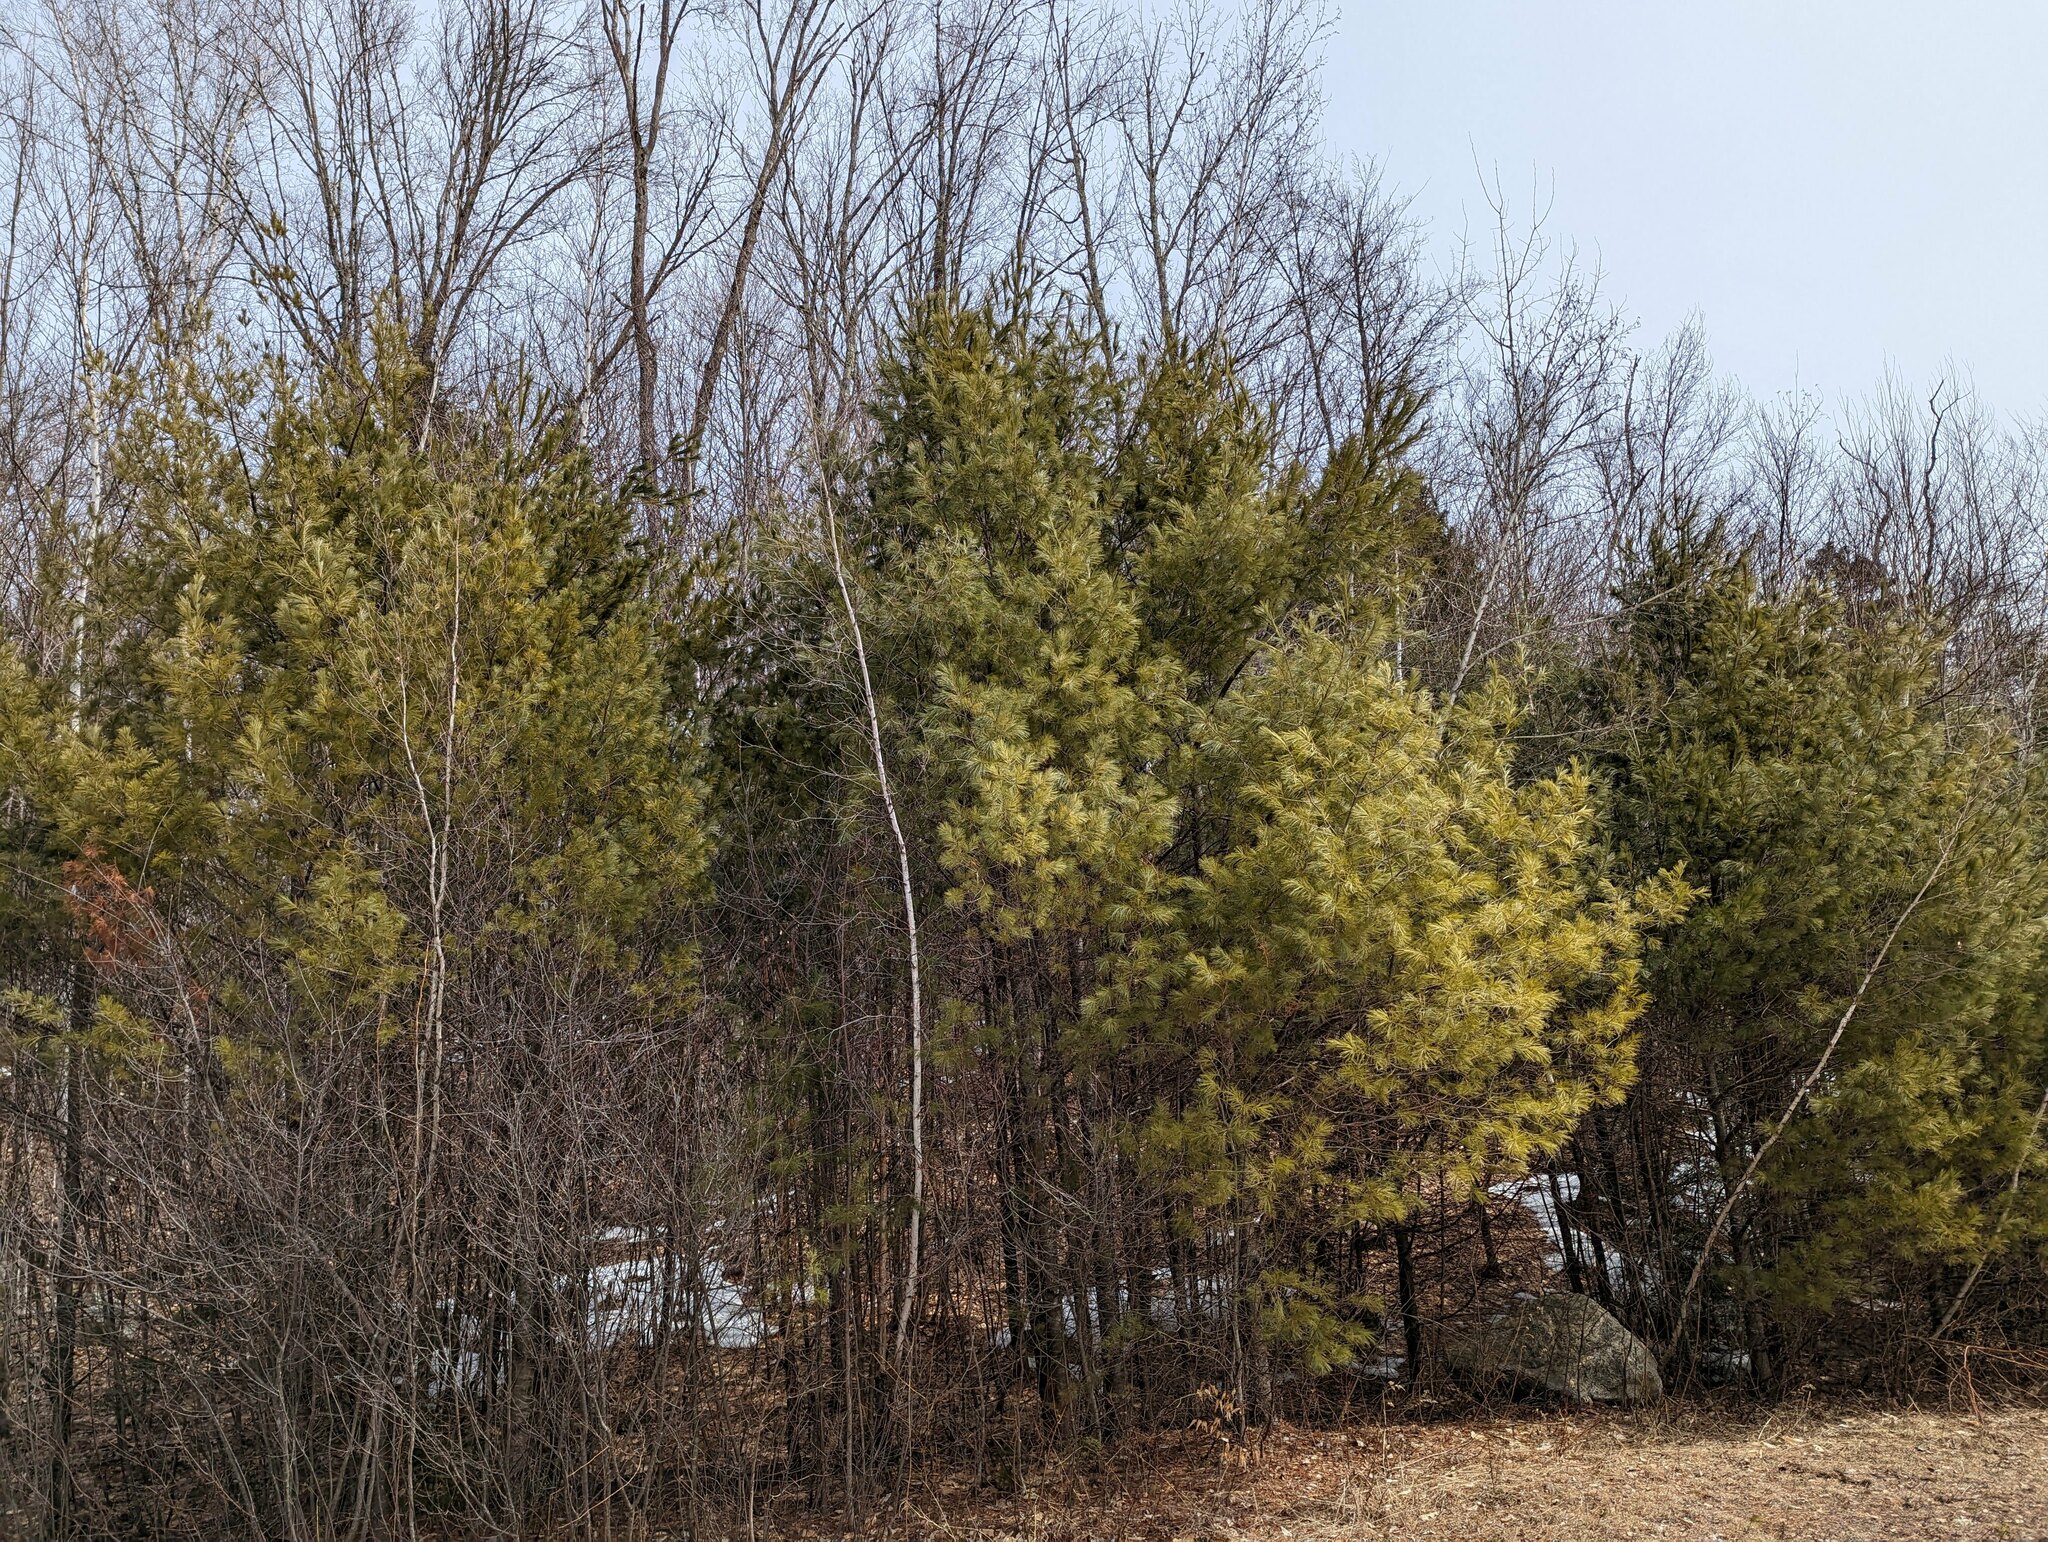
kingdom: Plantae
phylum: Tracheophyta
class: Pinopsida
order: Pinales
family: Pinaceae
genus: Pinus
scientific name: Pinus strobus
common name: Weymouth pine
